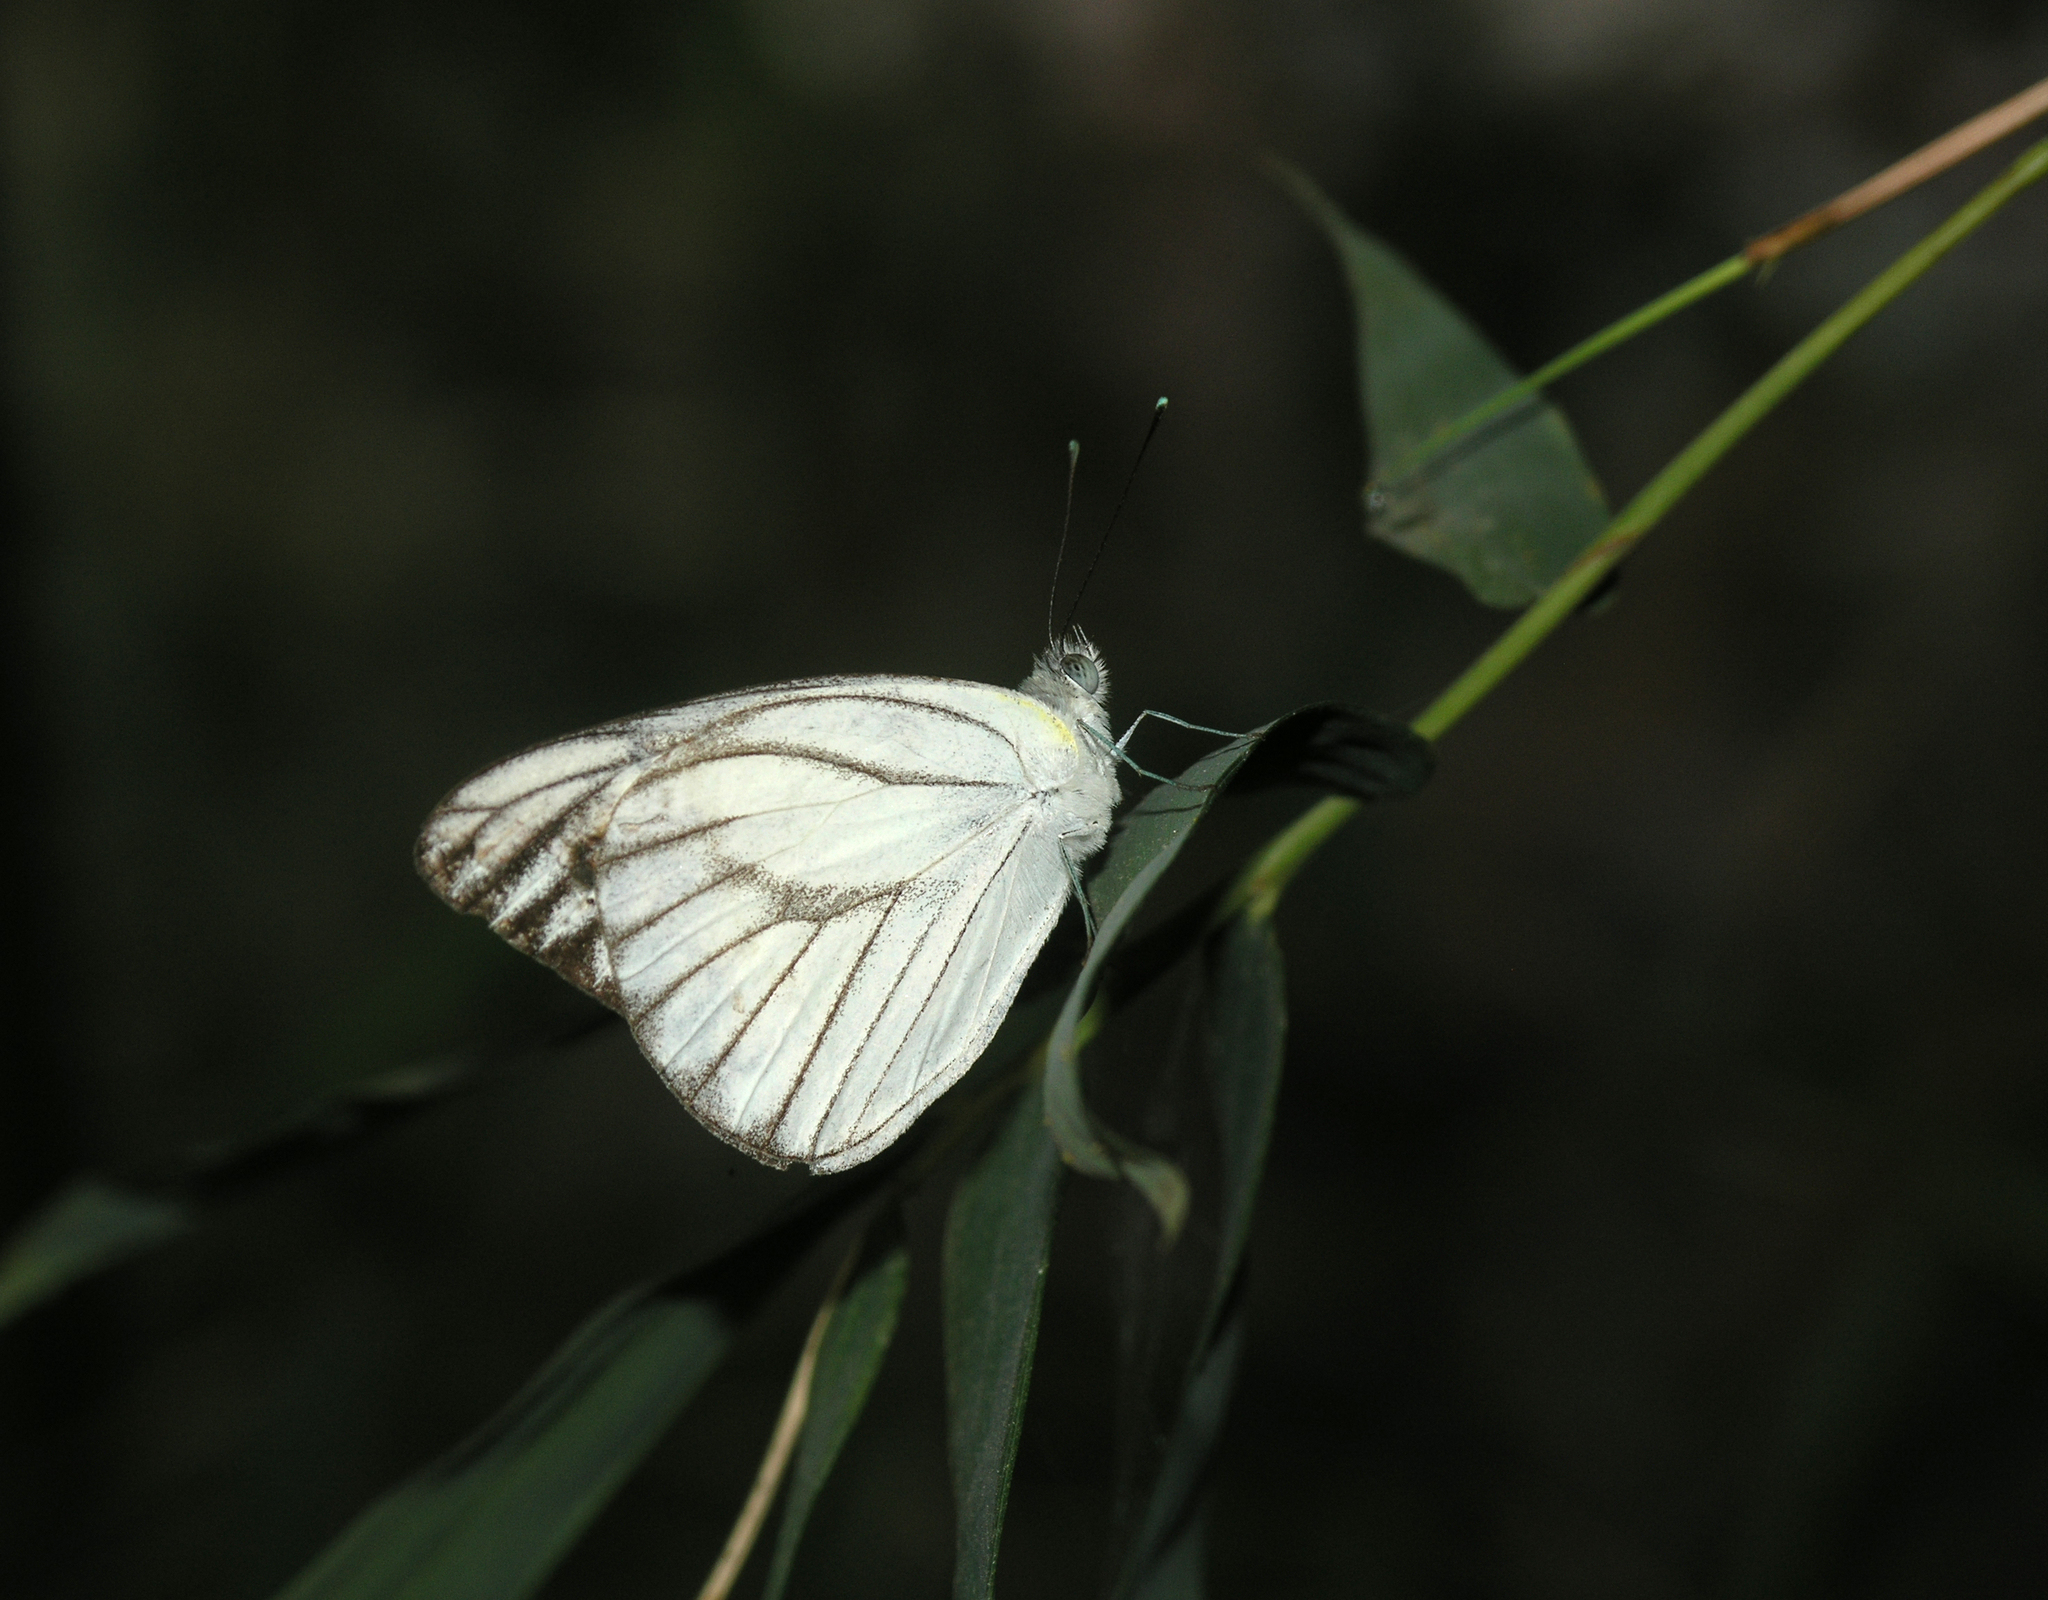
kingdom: Animalia
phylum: Arthropoda
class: Insecta
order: Lepidoptera
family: Pieridae
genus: Appias
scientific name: Appias libythea
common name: Striped albatross
